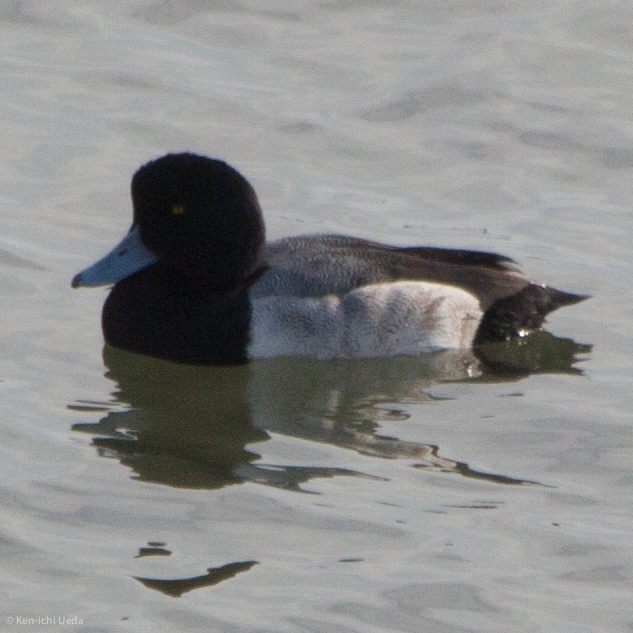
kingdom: Animalia
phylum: Chordata
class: Aves
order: Anseriformes
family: Anatidae
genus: Aythya
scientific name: Aythya marila
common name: Greater scaup
